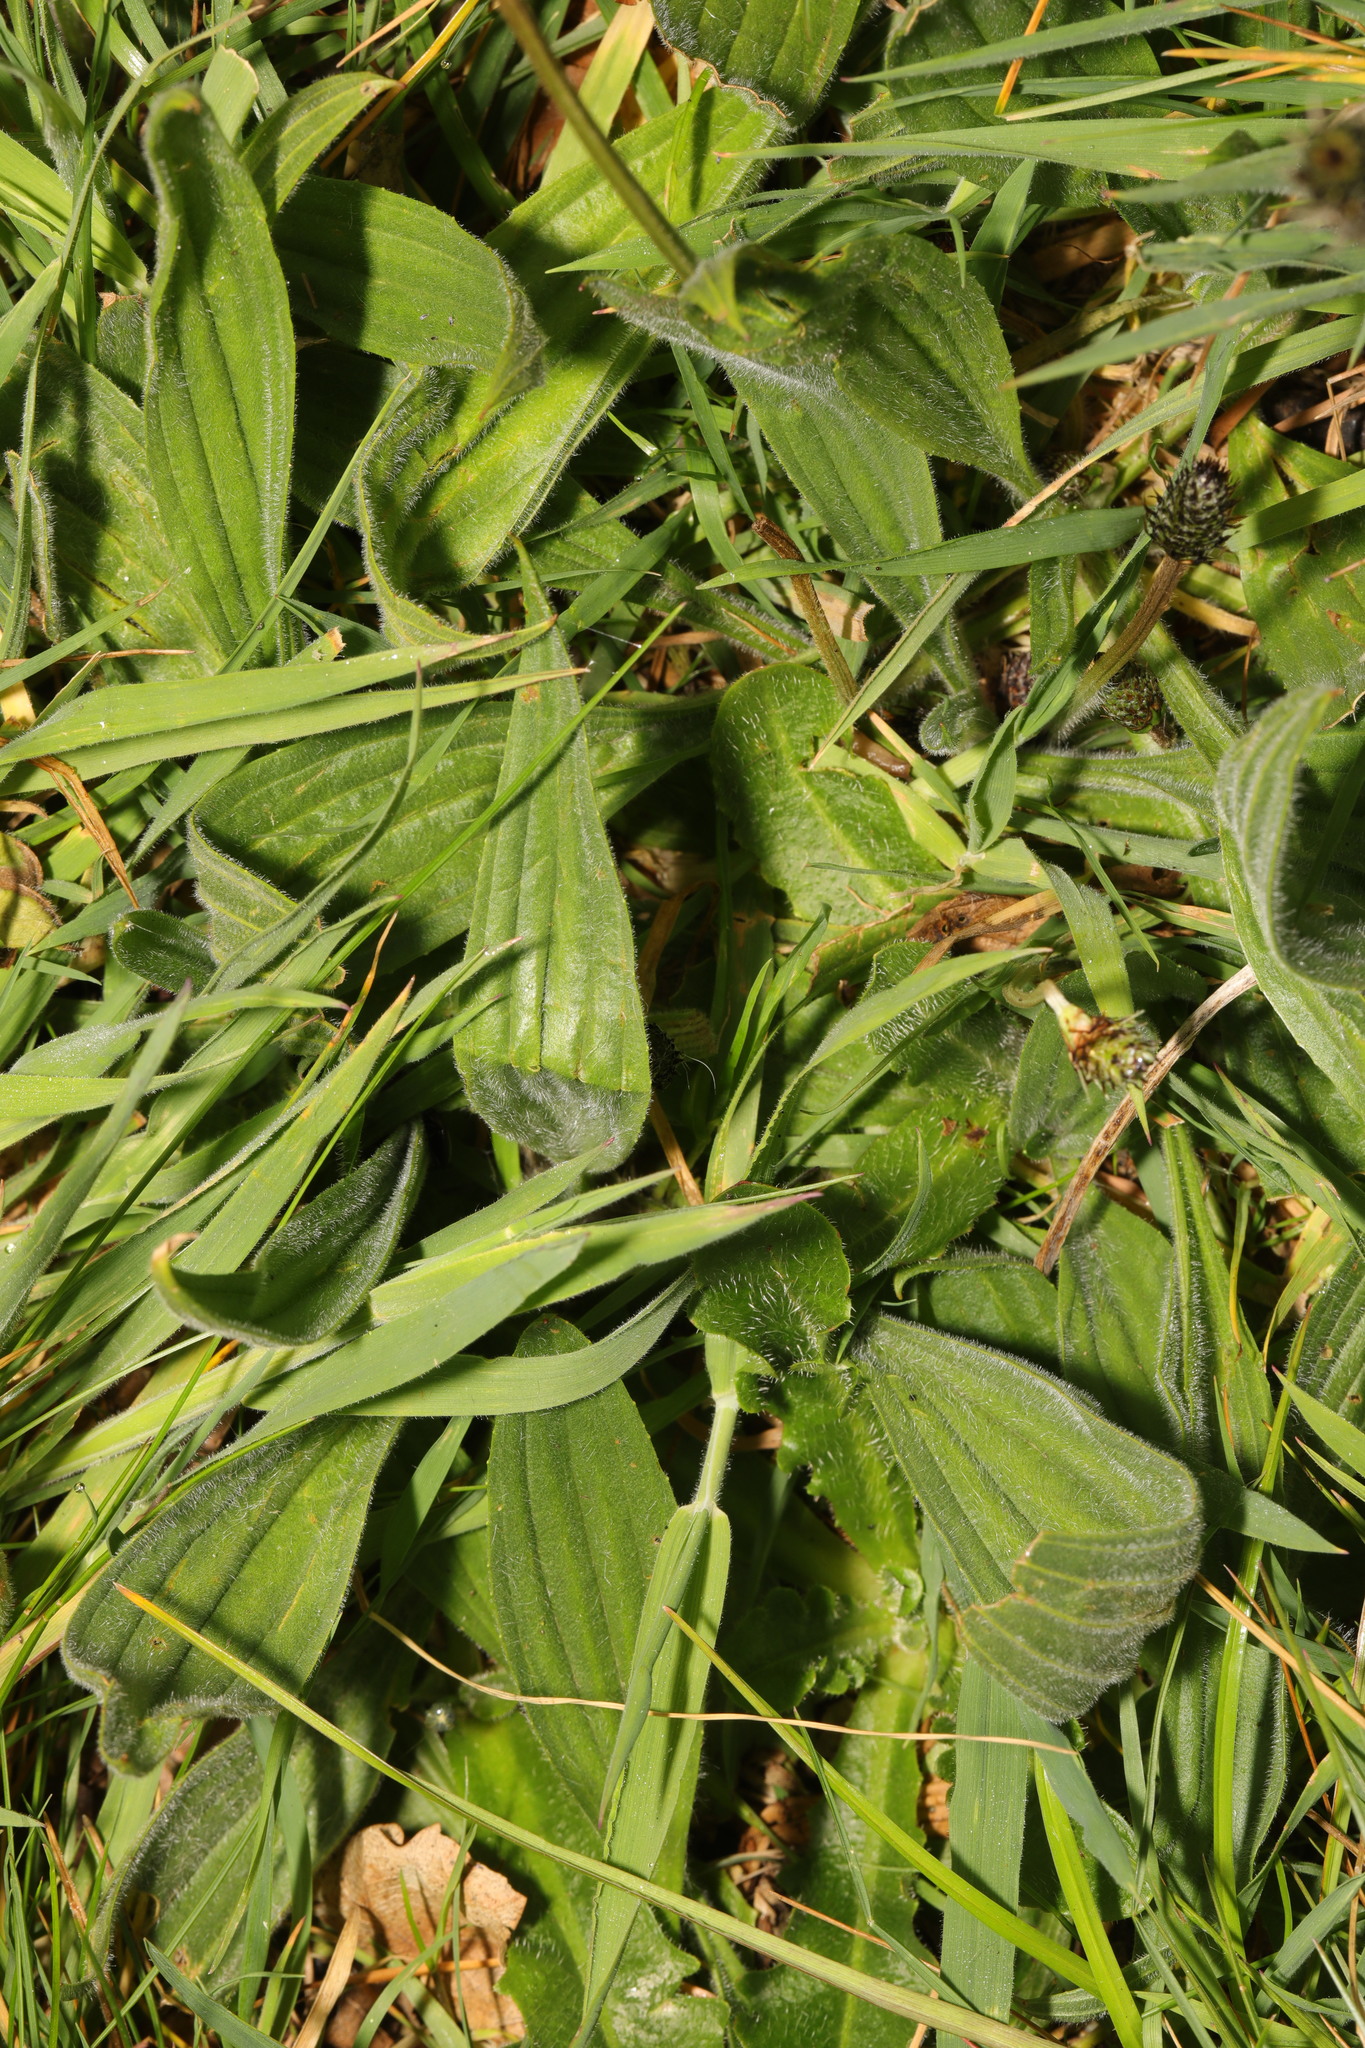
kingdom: Plantae
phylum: Tracheophyta
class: Magnoliopsida
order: Lamiales
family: Plantaginaceae
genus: Plantago
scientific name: Plantago lanceolata
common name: Ribwort plantain
